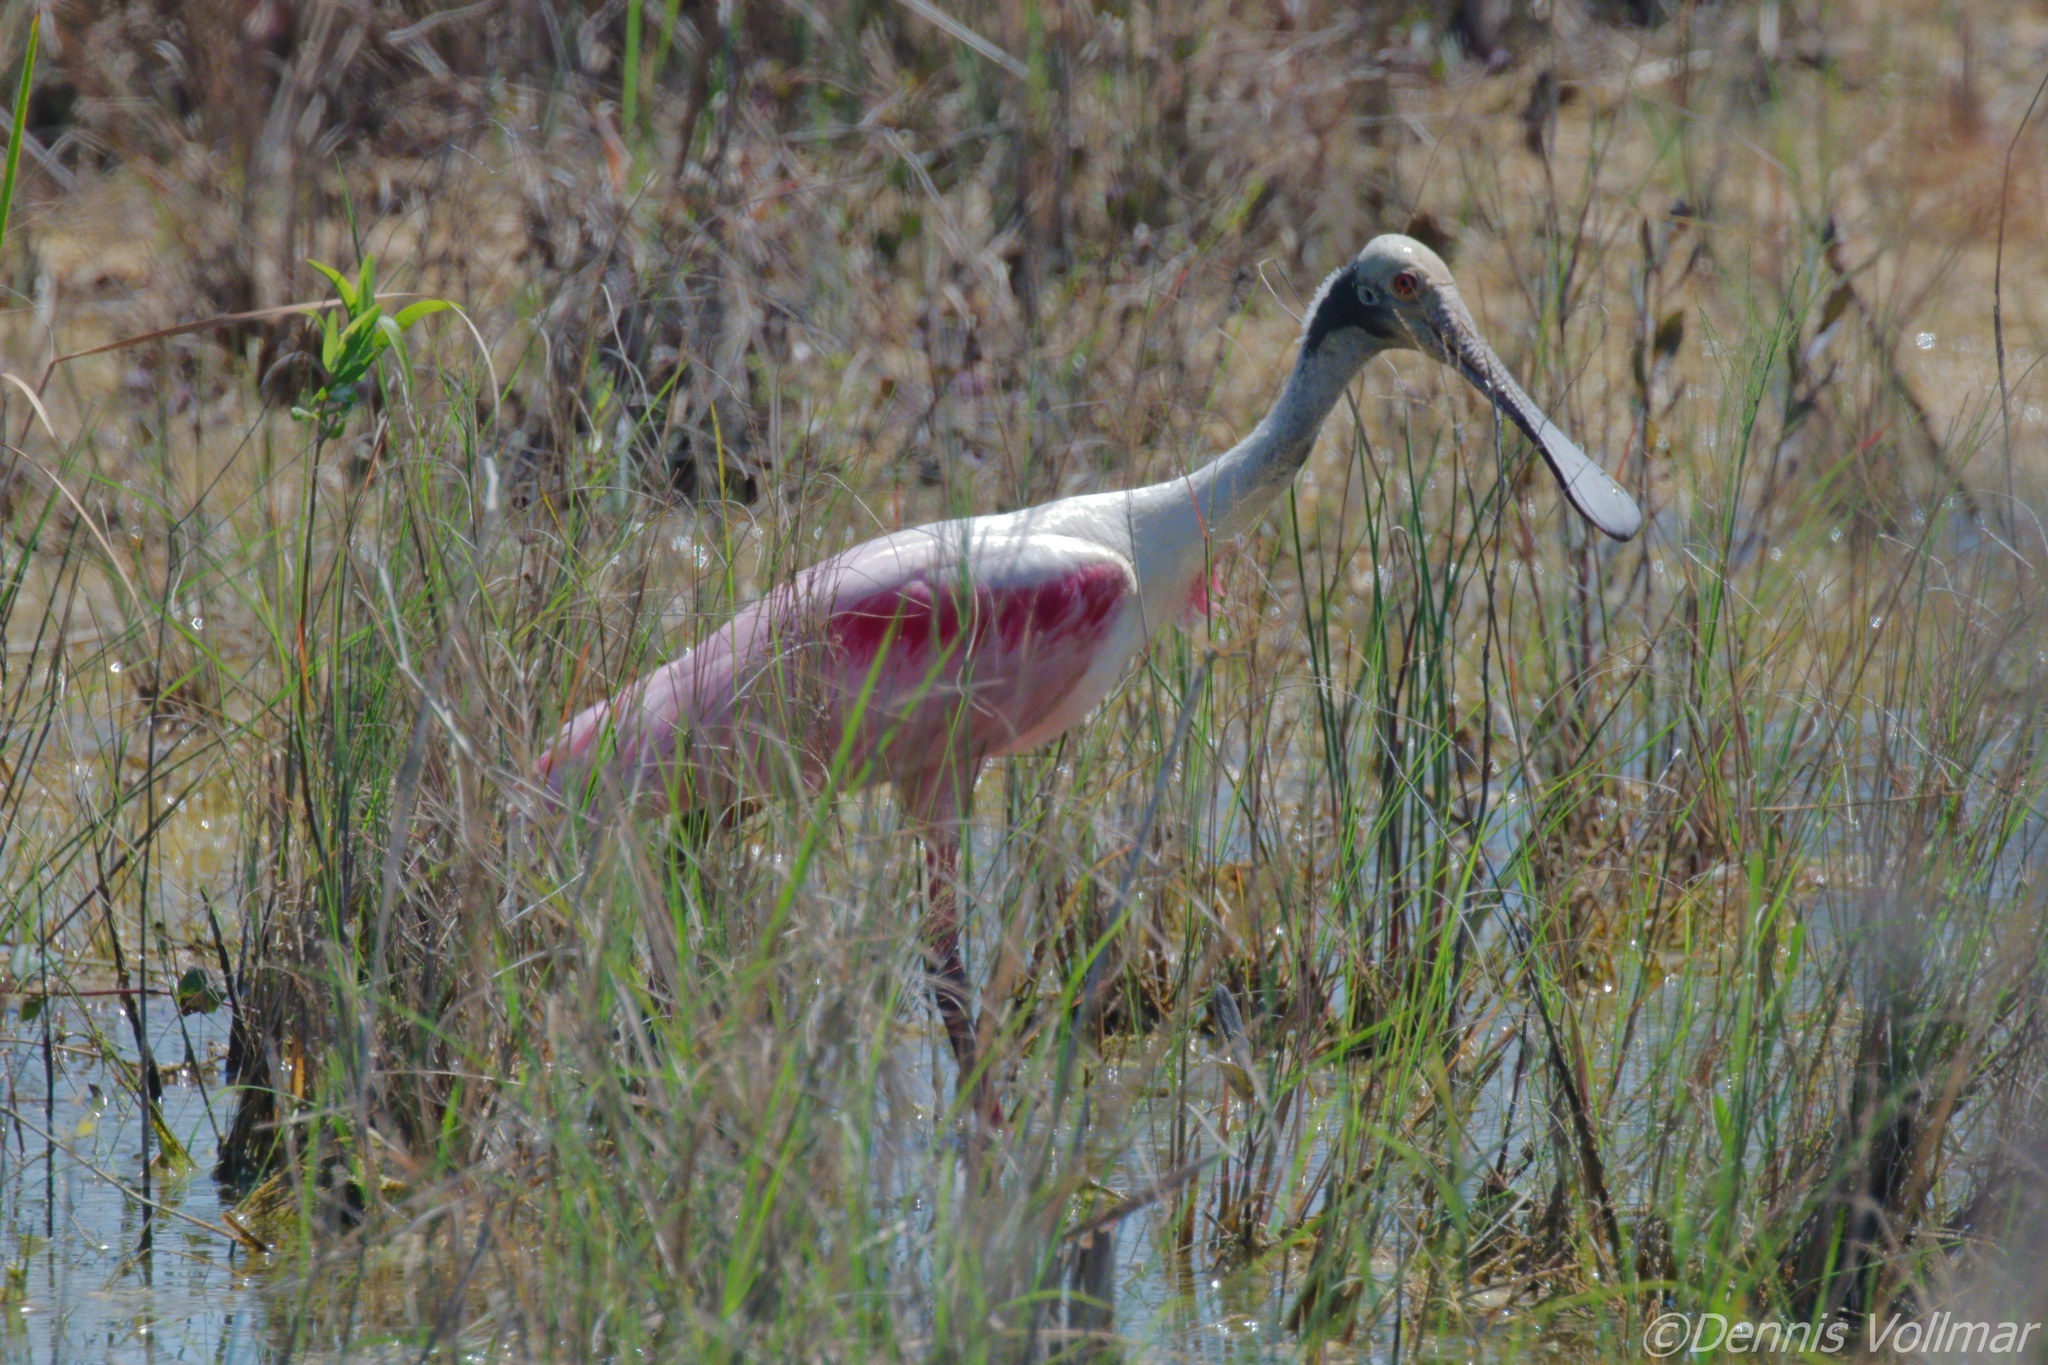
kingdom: Animalia
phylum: Chordata
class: Aves
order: Pelecaniformes
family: Threskiornithidae
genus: Platalea
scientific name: Platalea ajaja
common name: Roseate spoonbill
